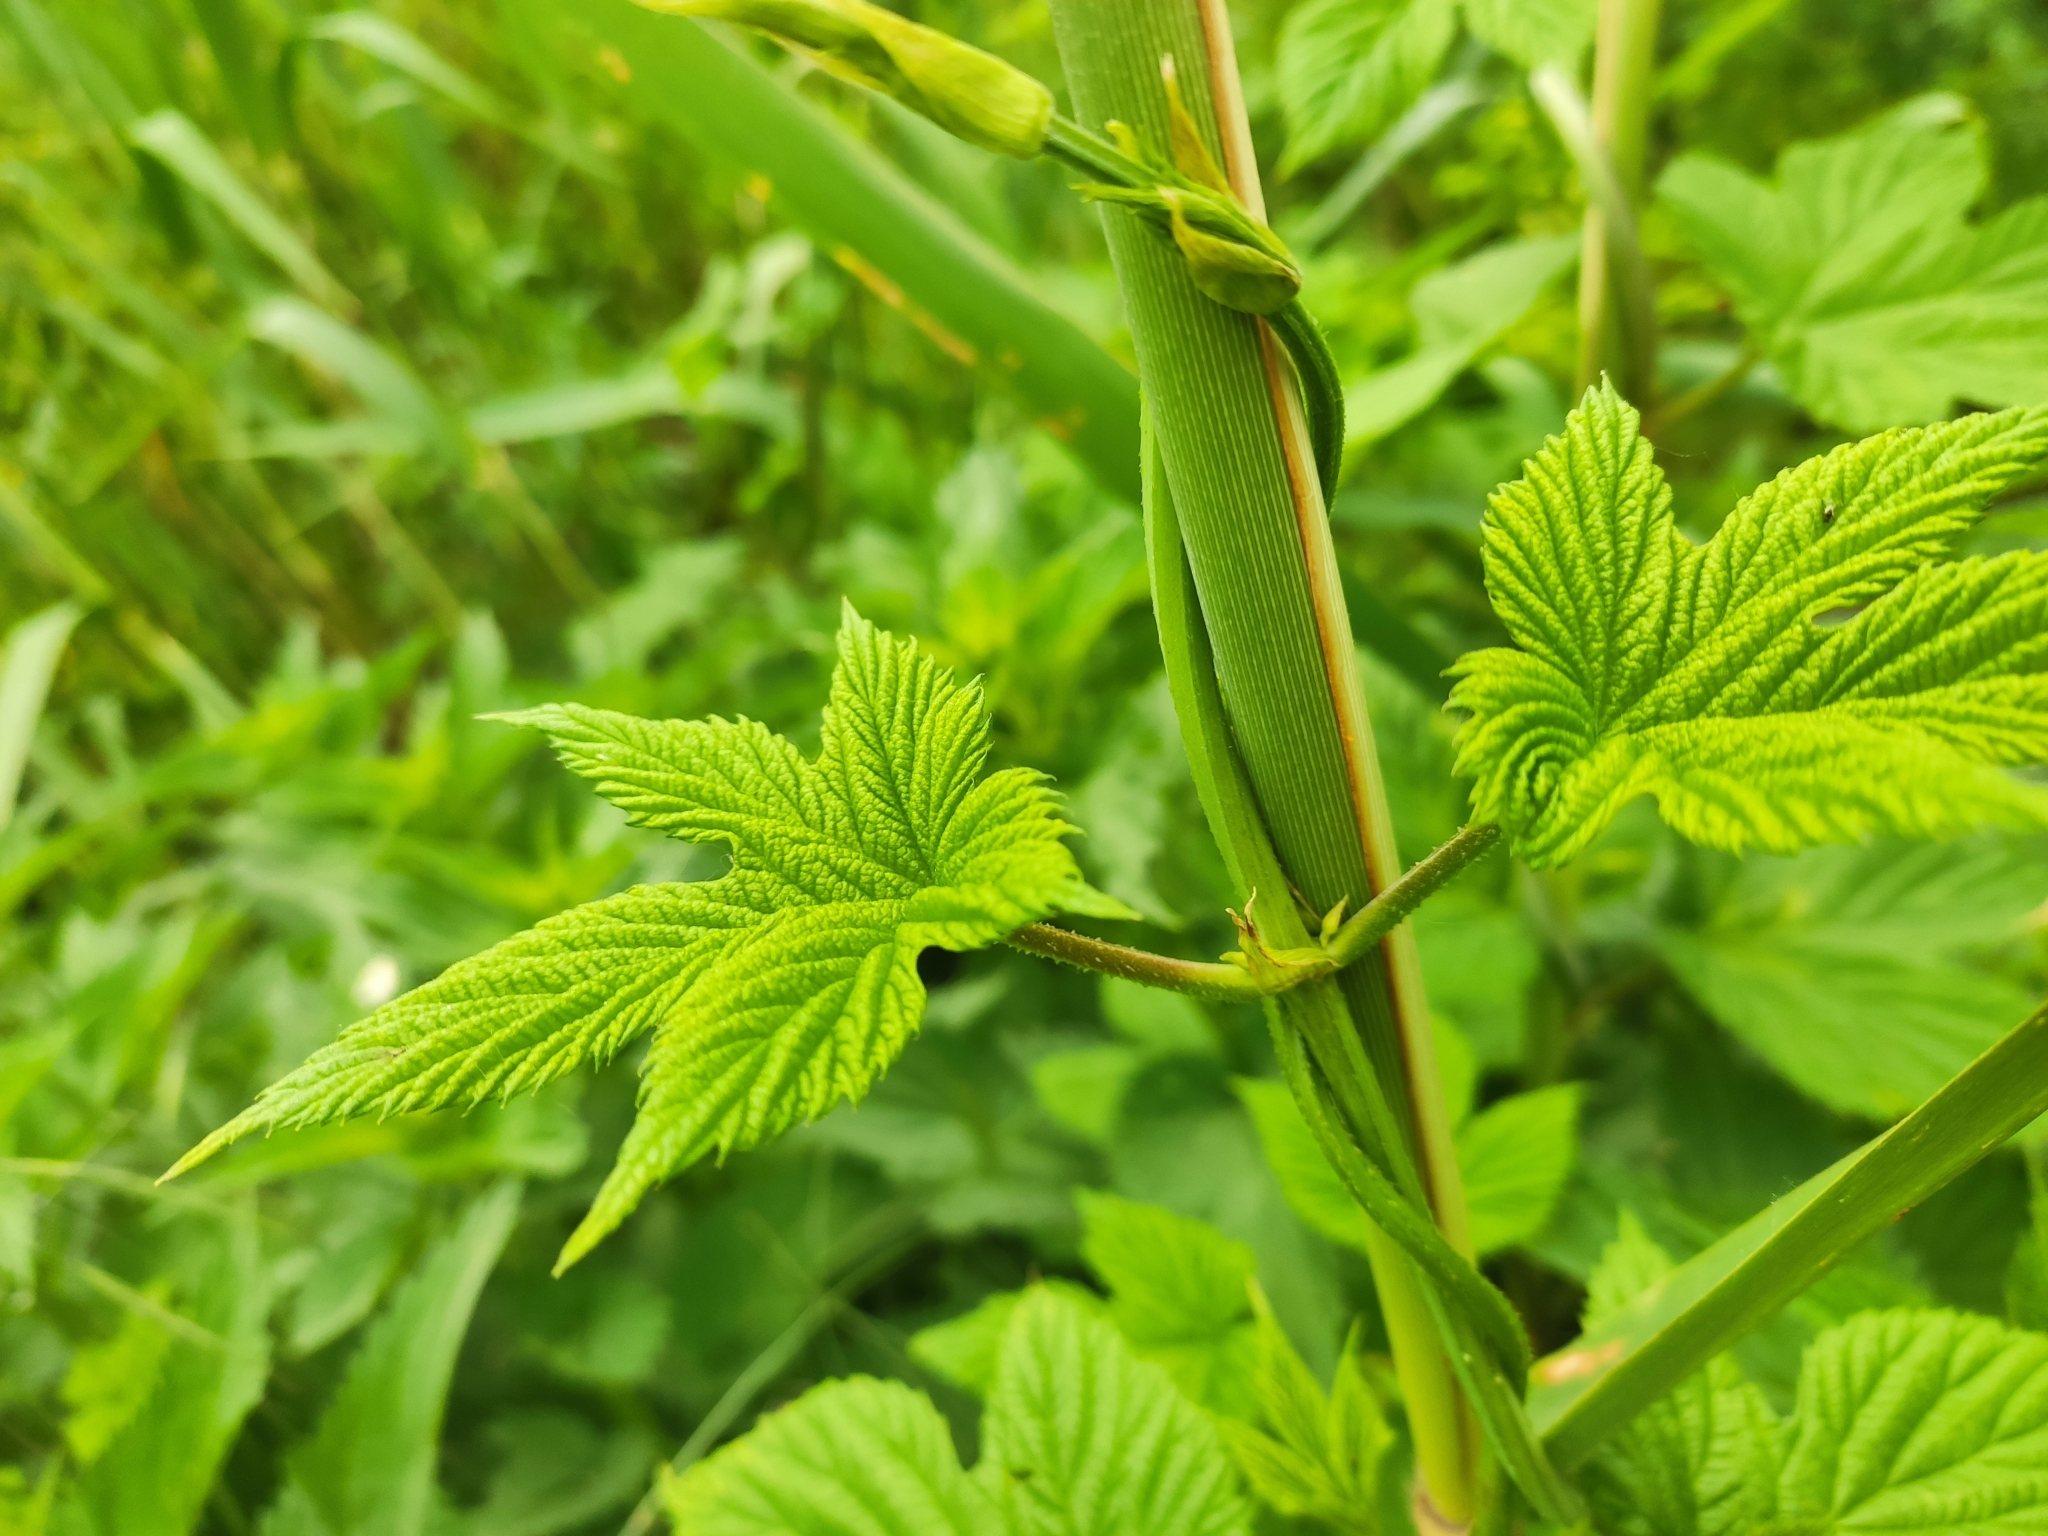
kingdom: Plantae
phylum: Tracheophyta
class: Magnoliopsida
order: Rosales
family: Cannabaceae
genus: Humulus
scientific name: Humulus lupulus
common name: Hop
